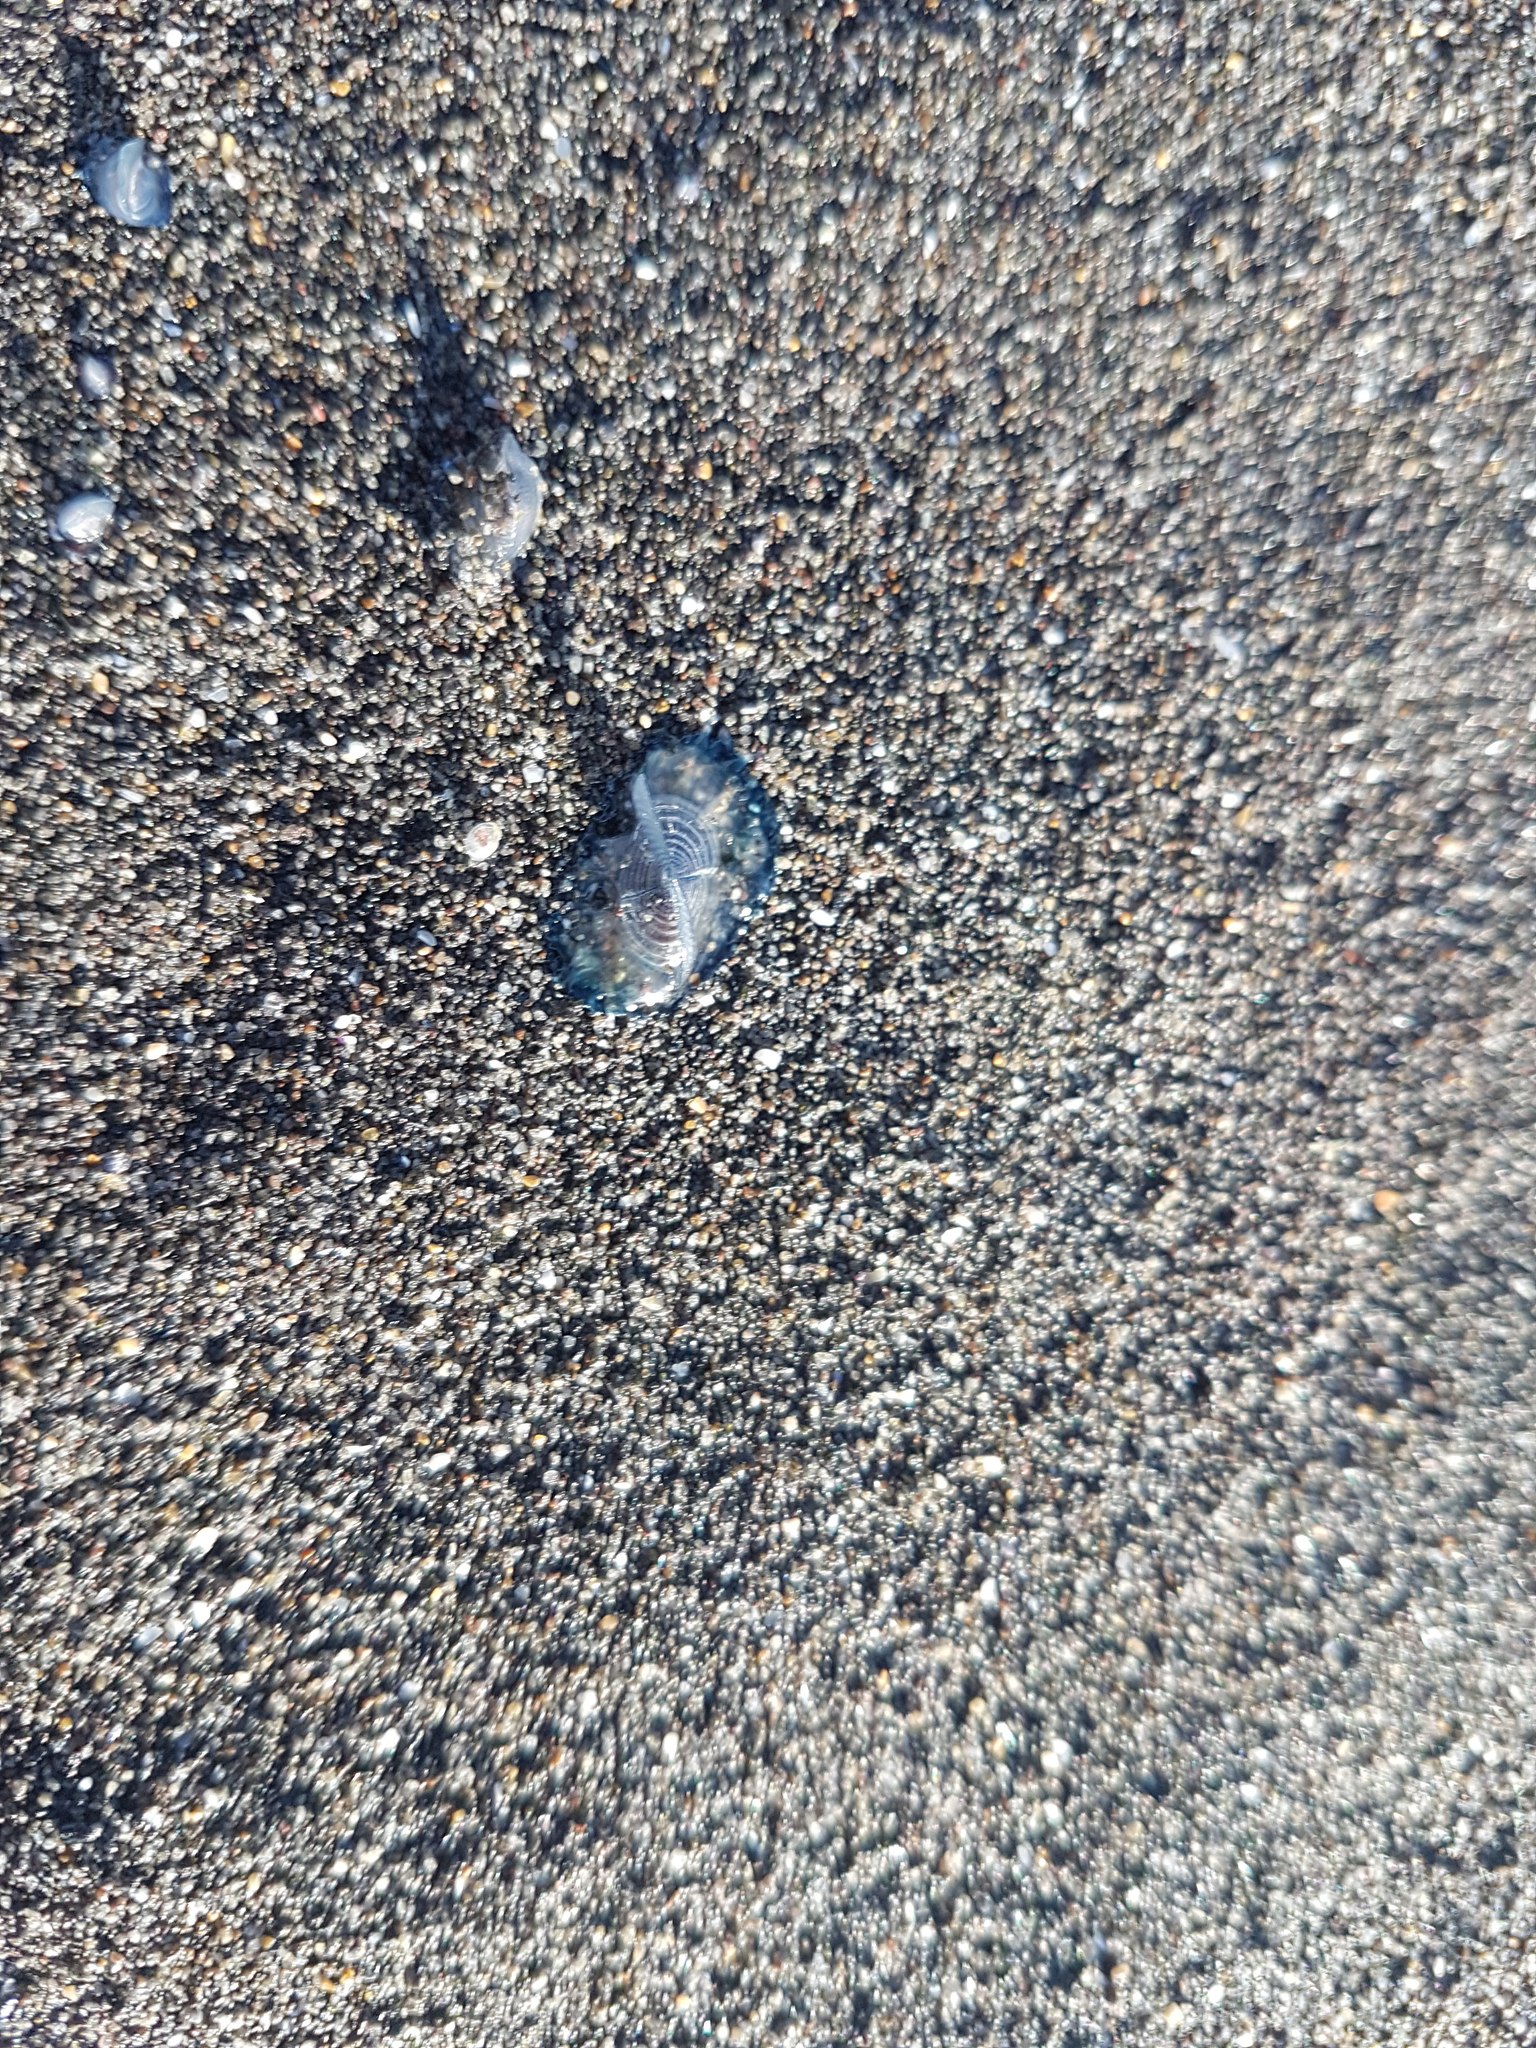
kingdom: Animalia
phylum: Cnidaria
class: Hydrozoa
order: Anthoathecata
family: Porpitidae
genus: Velella
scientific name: Velella velella
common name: By-the-wind-sailor
